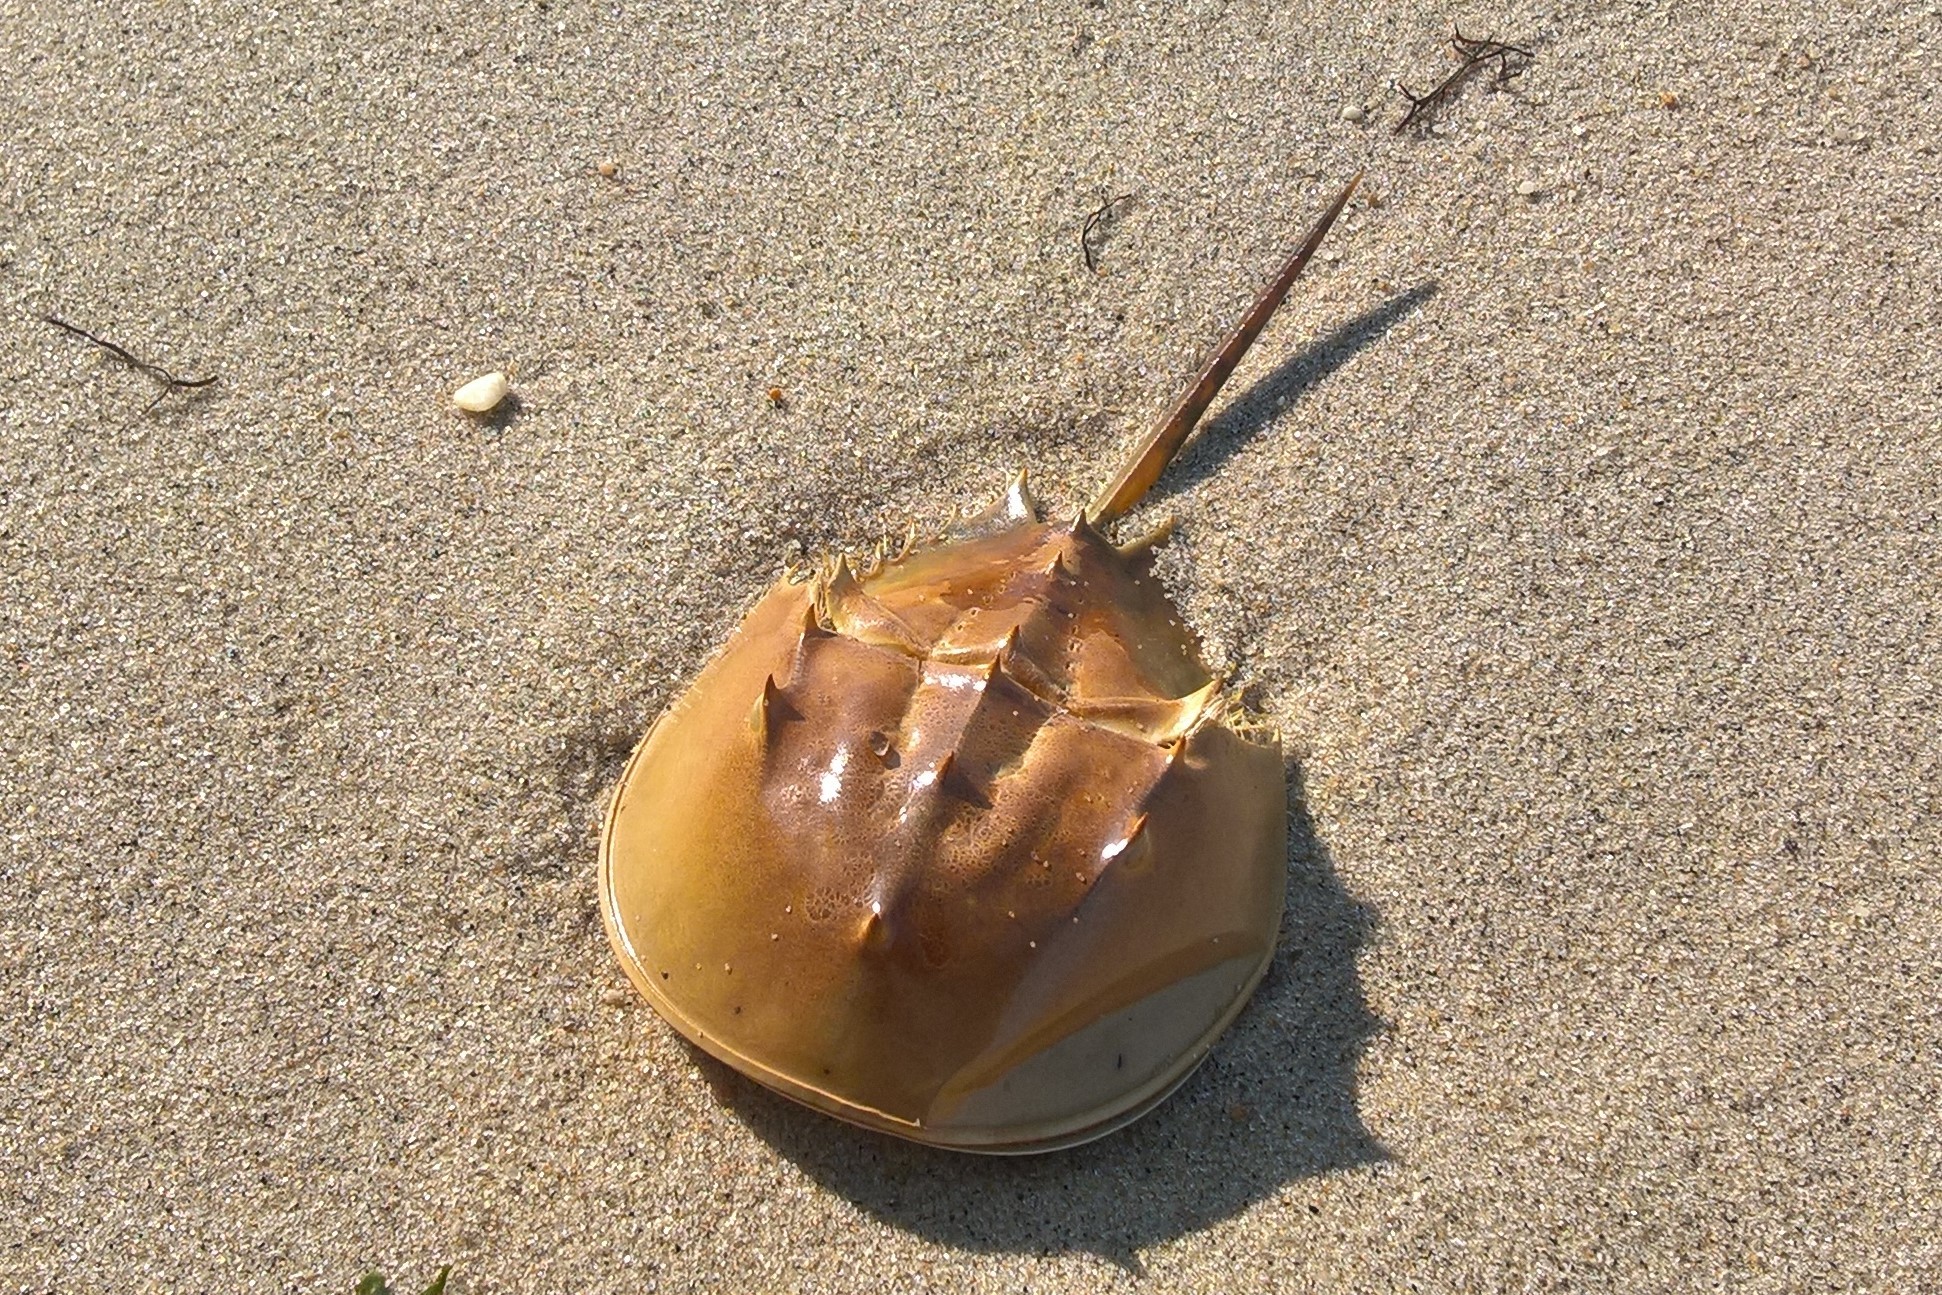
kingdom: Animalia
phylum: Arthropoda
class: Merostomata
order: Xiphosurida
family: Limulidae
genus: Limulus
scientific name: Limulus polyphemus
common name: Horseshoe crab
